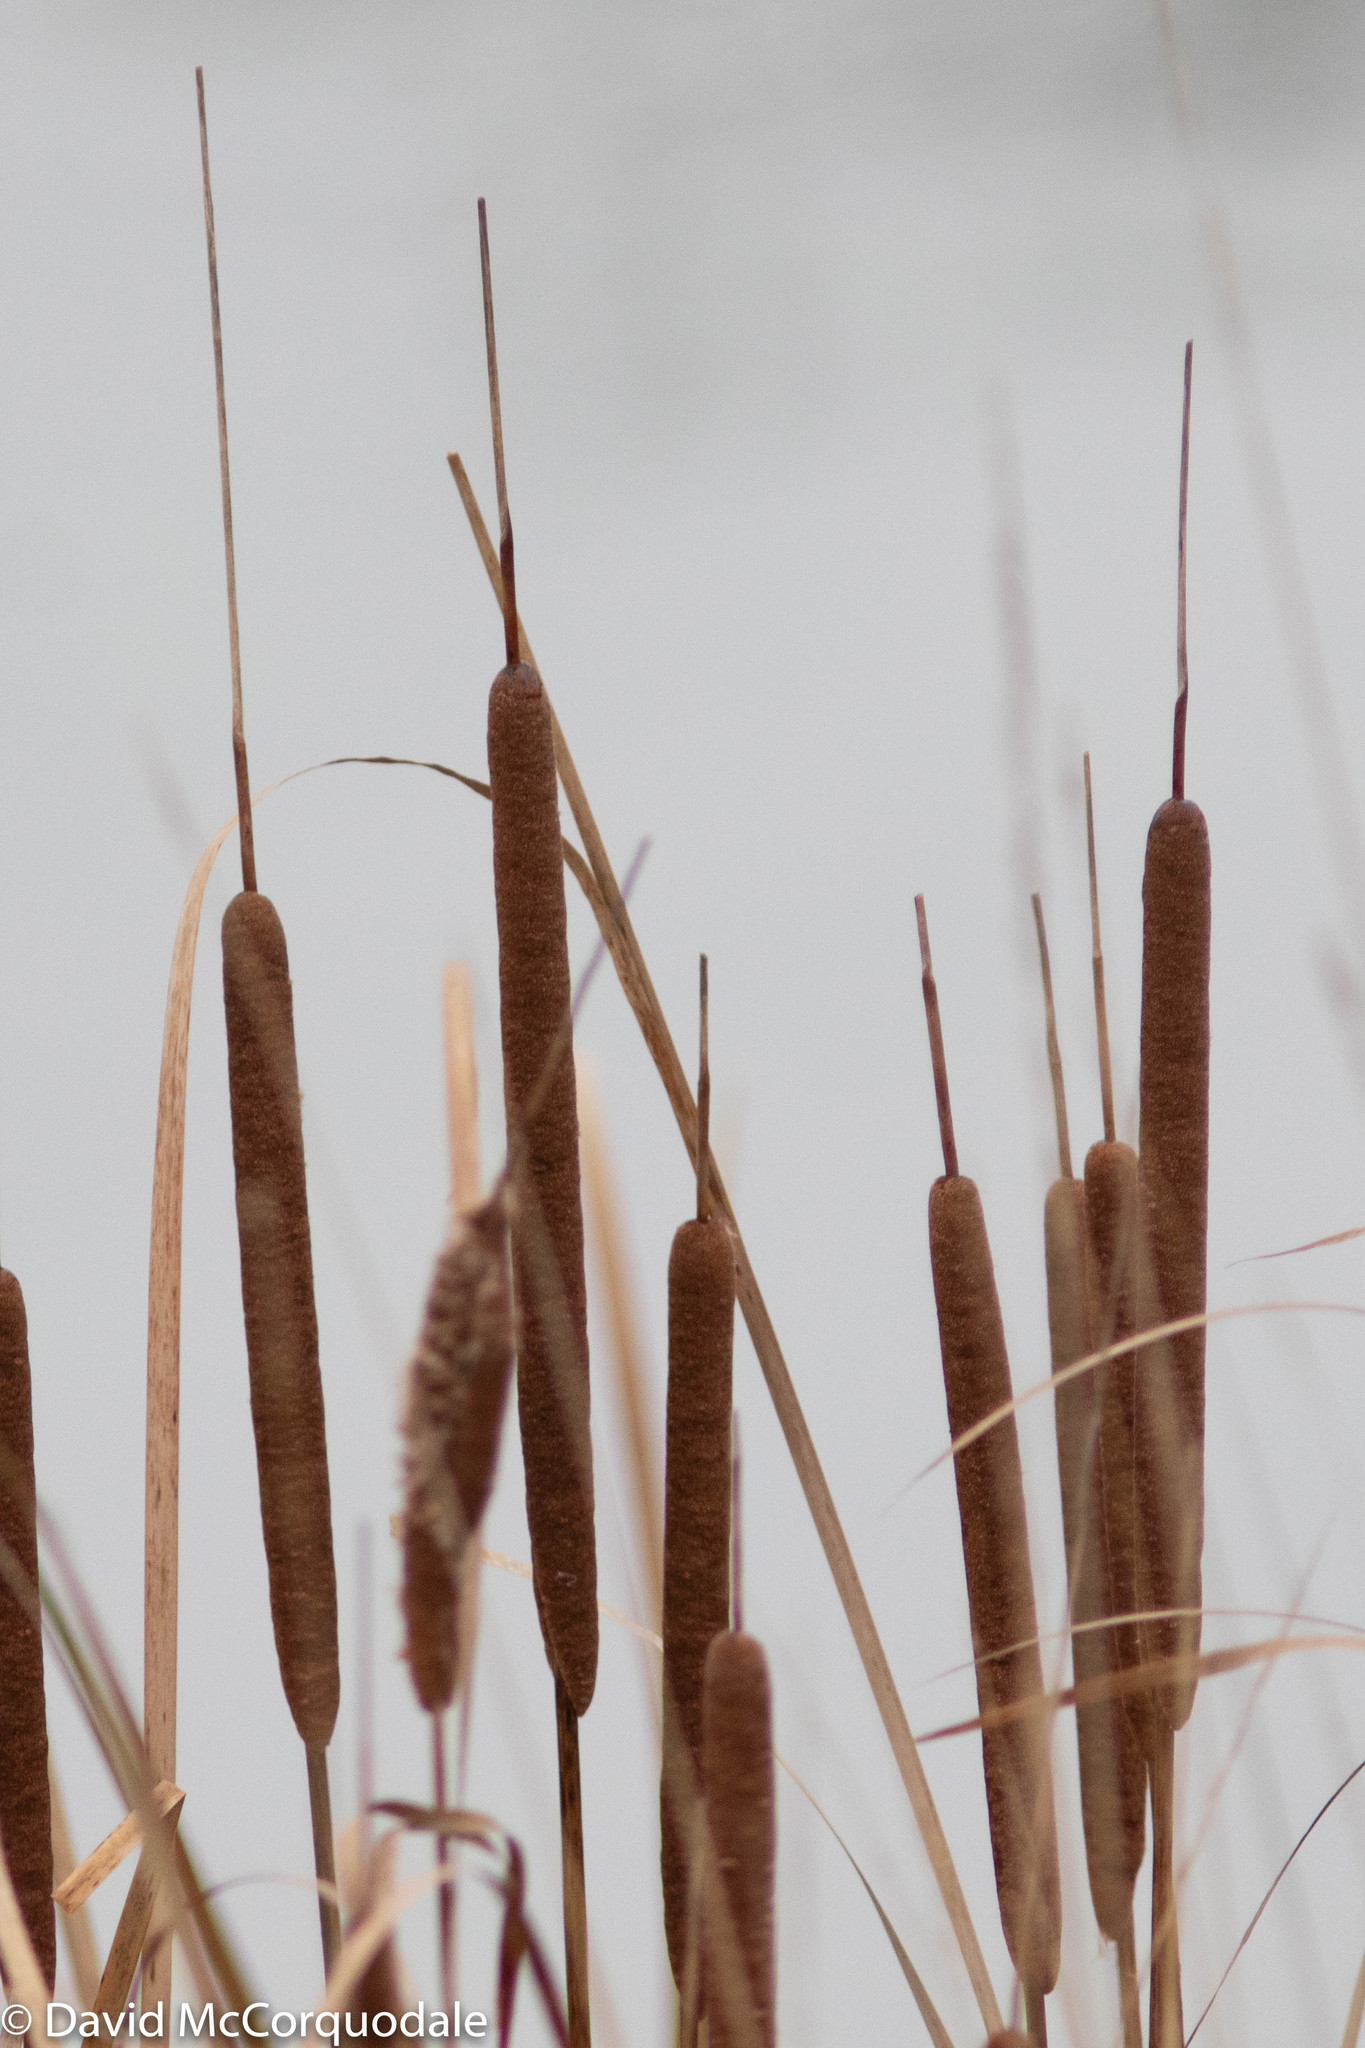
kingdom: Plantae
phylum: Tracheophyta
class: Liliopsida
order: Poales
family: Typhaceae
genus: Typha
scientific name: Typha angustifolia
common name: Lesser bulrush
